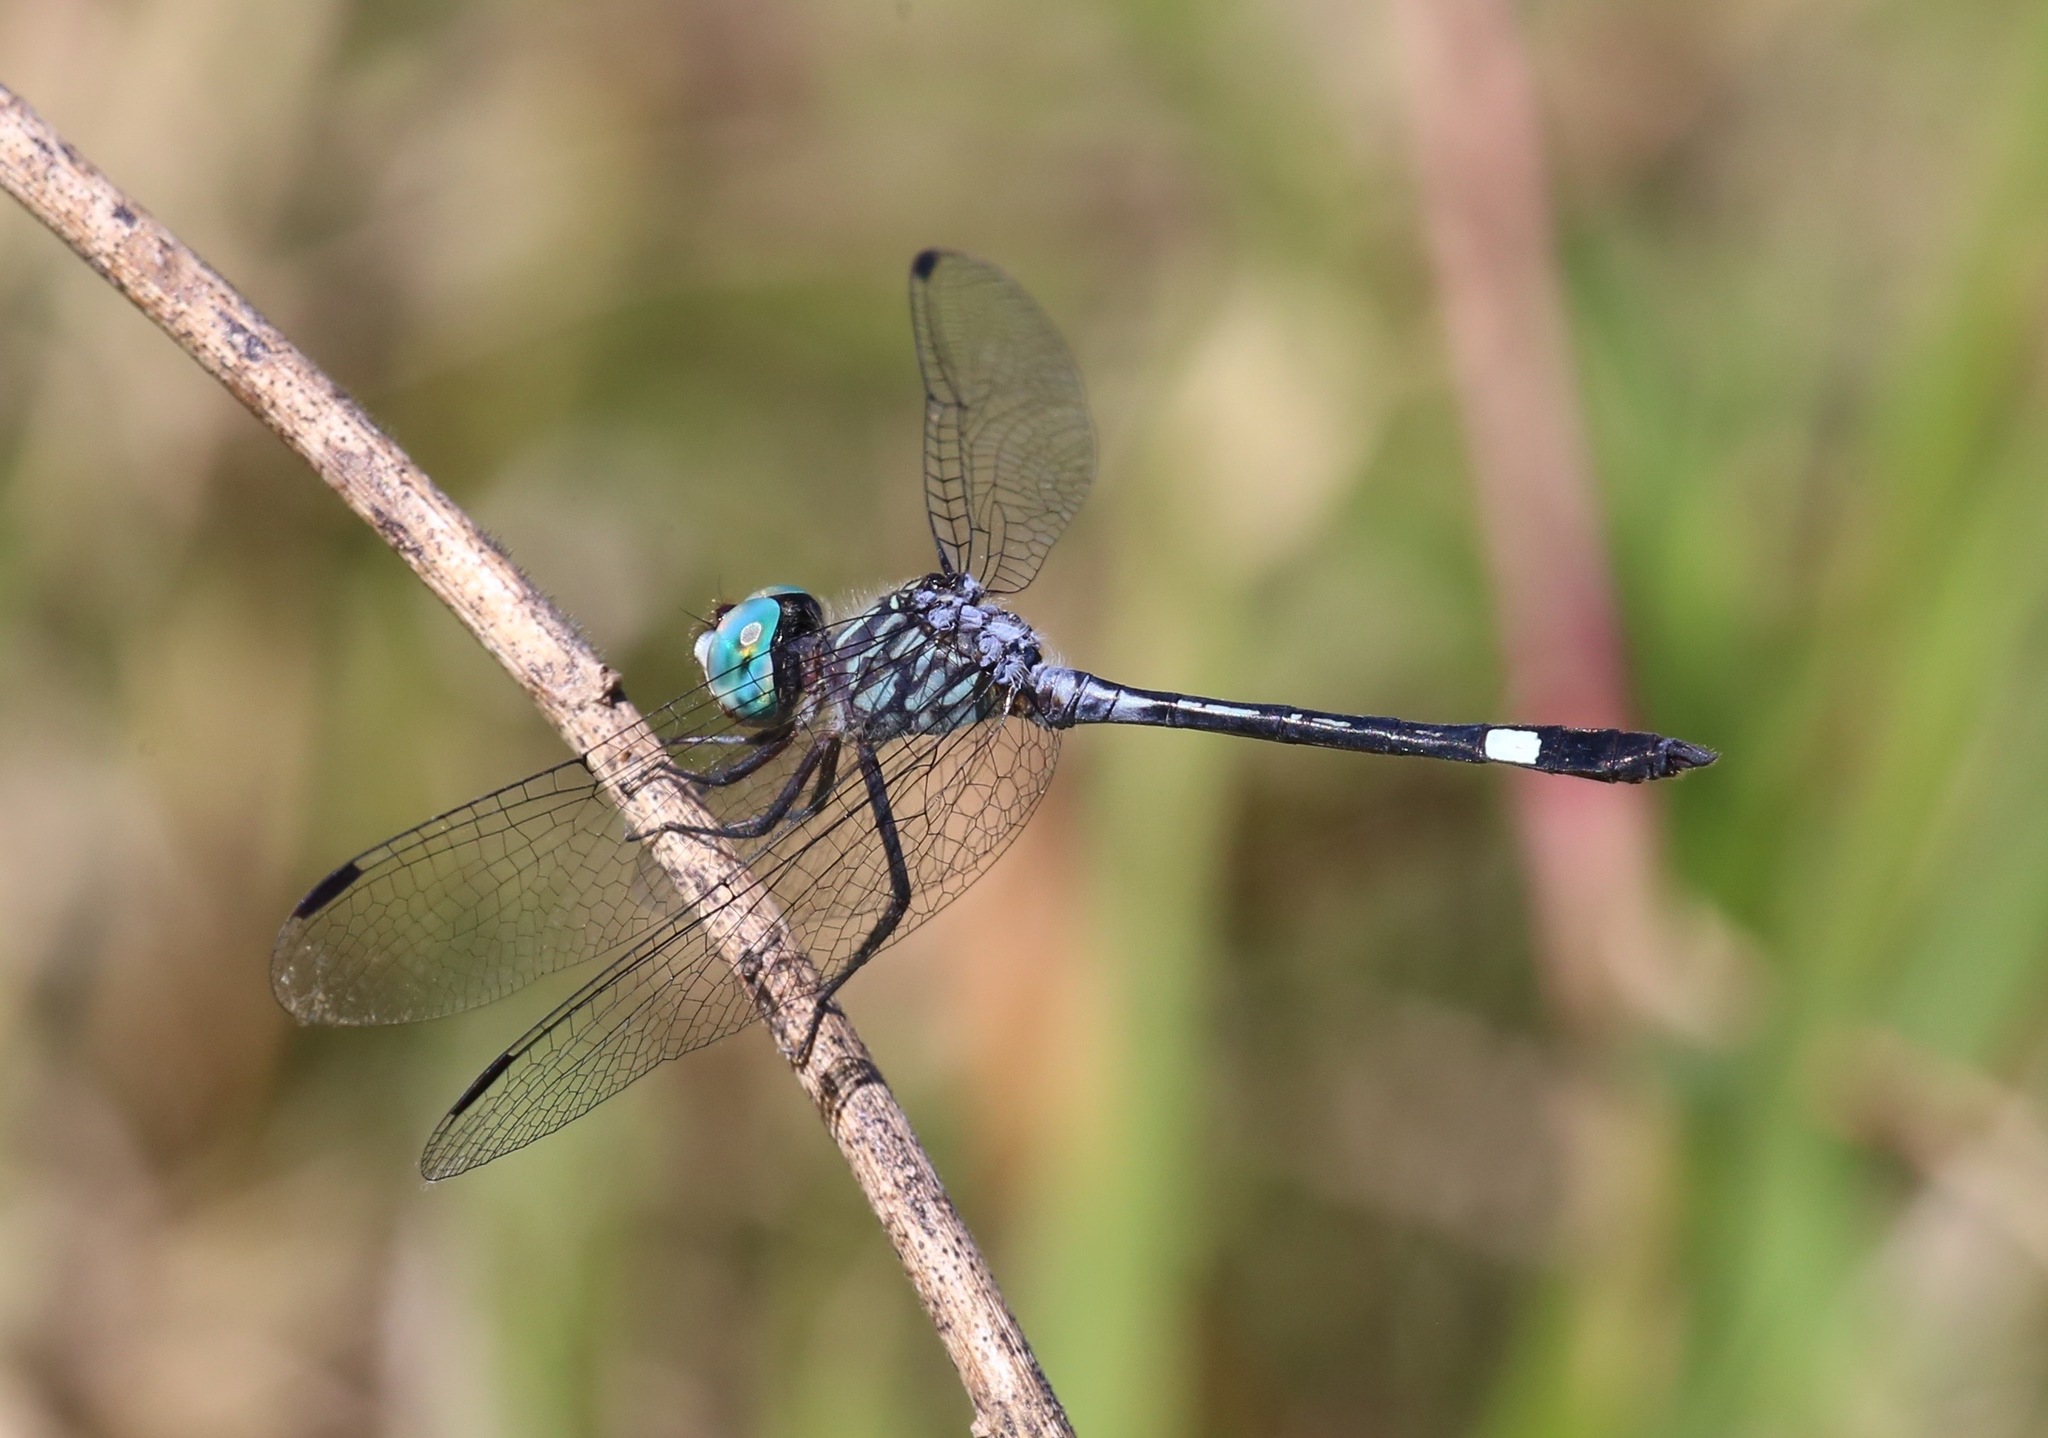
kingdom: Animalia
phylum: Arthropoda
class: Insecta
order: Odonata
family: Libellulidae
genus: Micrathyria
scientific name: Micrathyria ocellata
